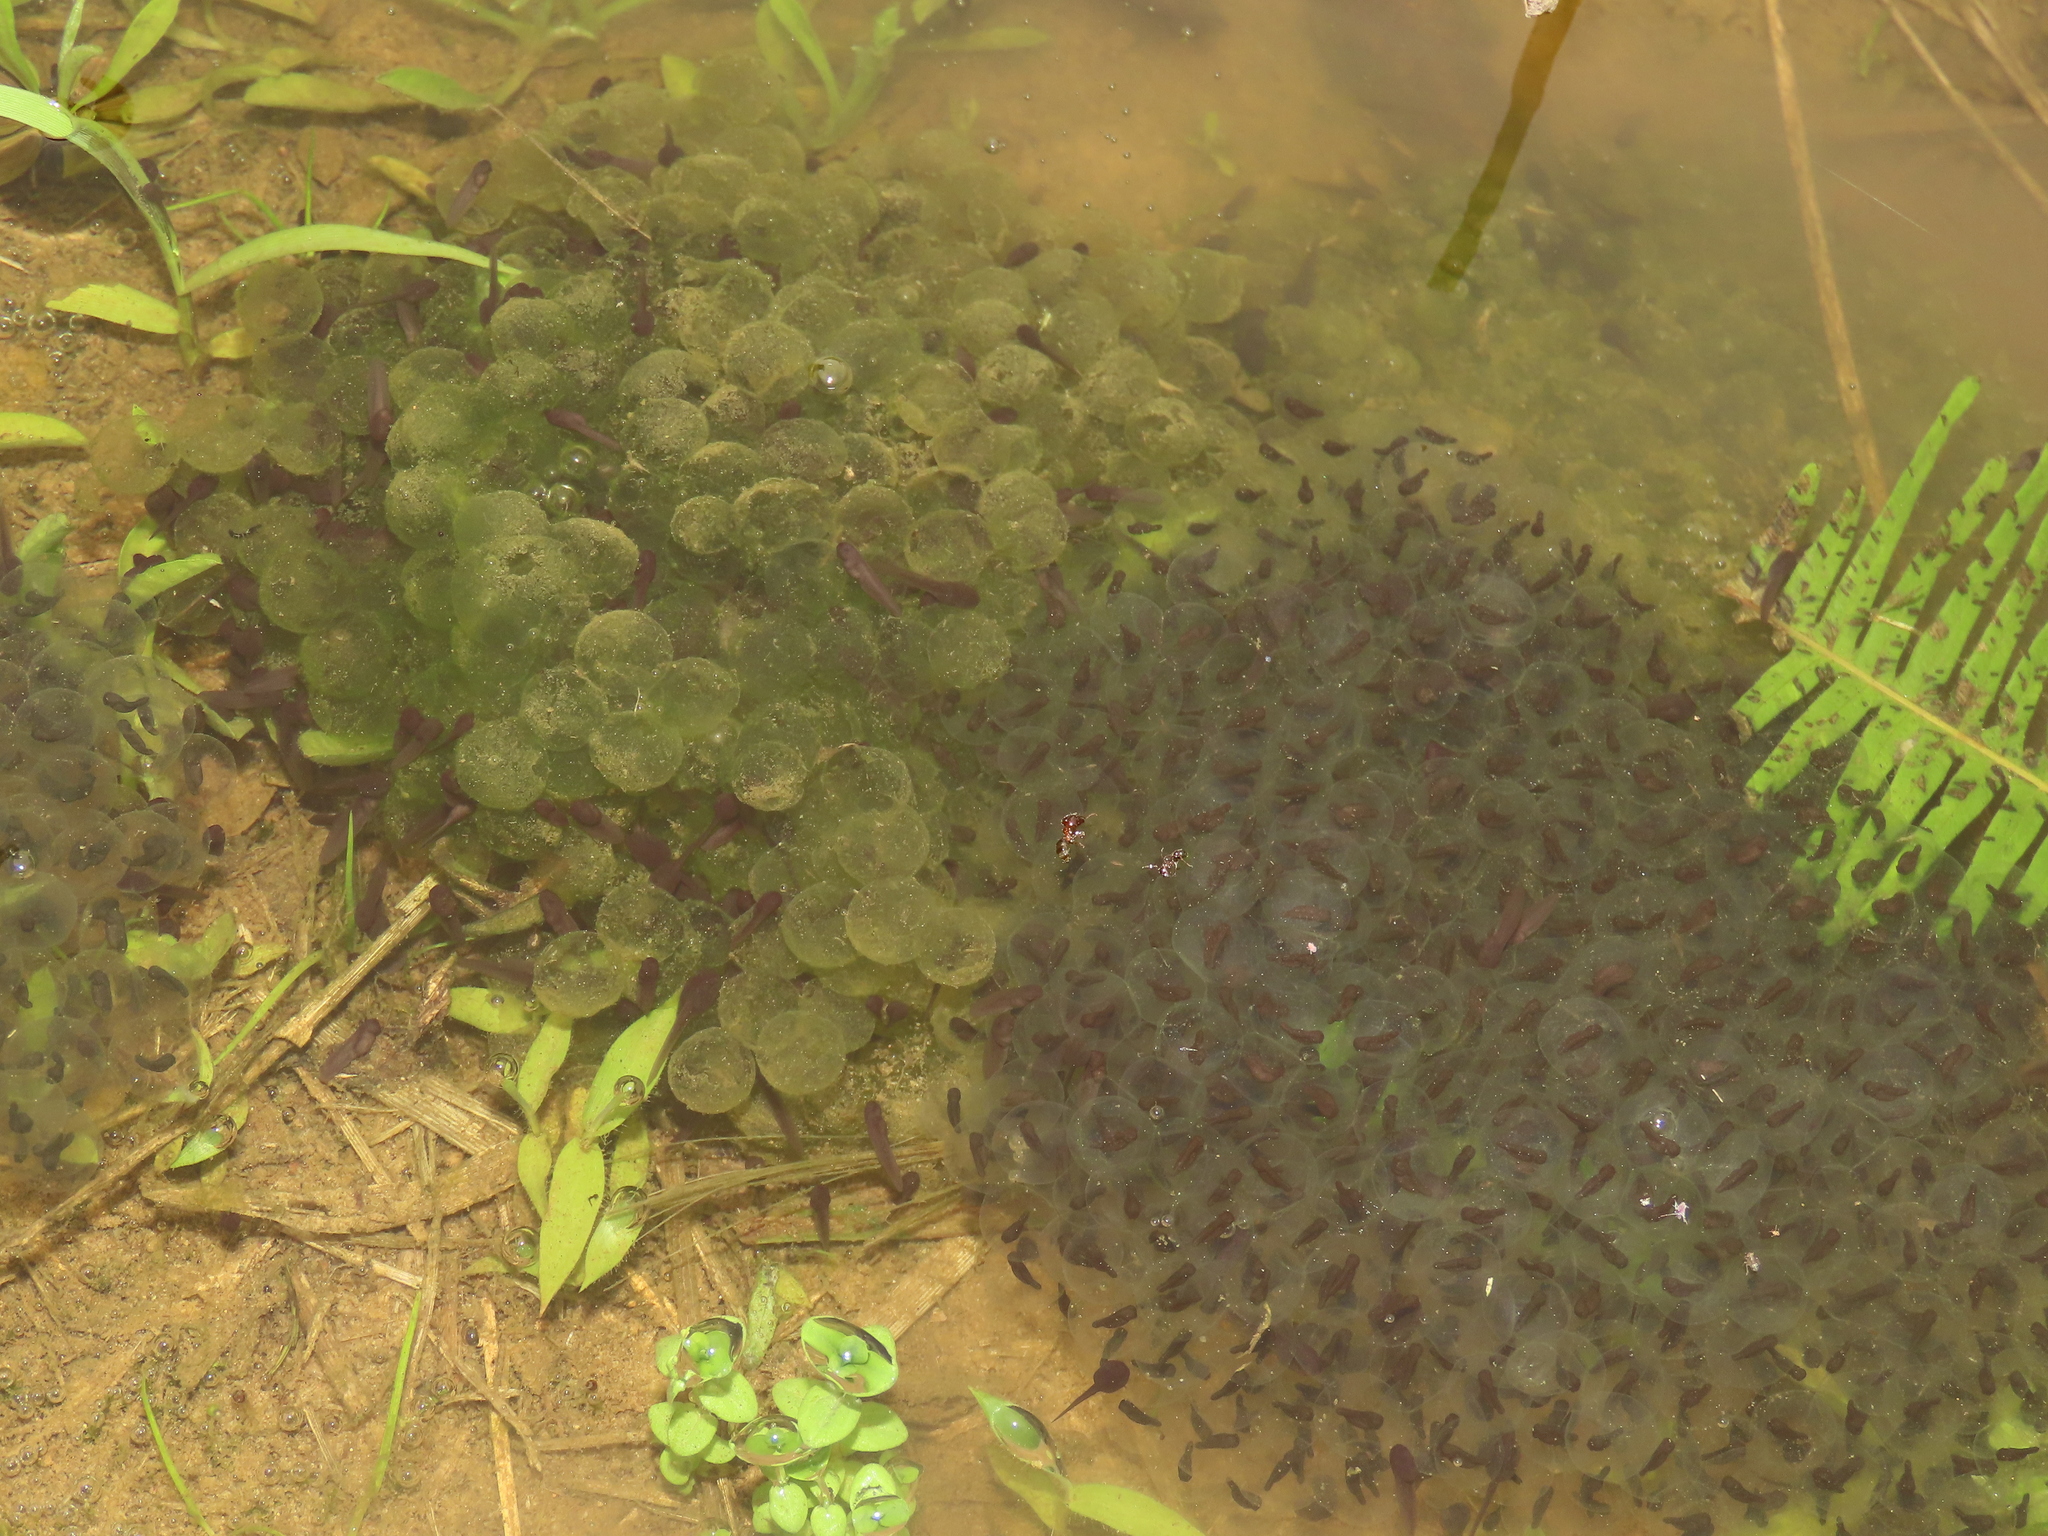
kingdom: Animalia
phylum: Chordata
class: Amphibia
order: Anura
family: Ranidae
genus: Rana
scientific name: Rana longicrus
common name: Long-legged brown frog
